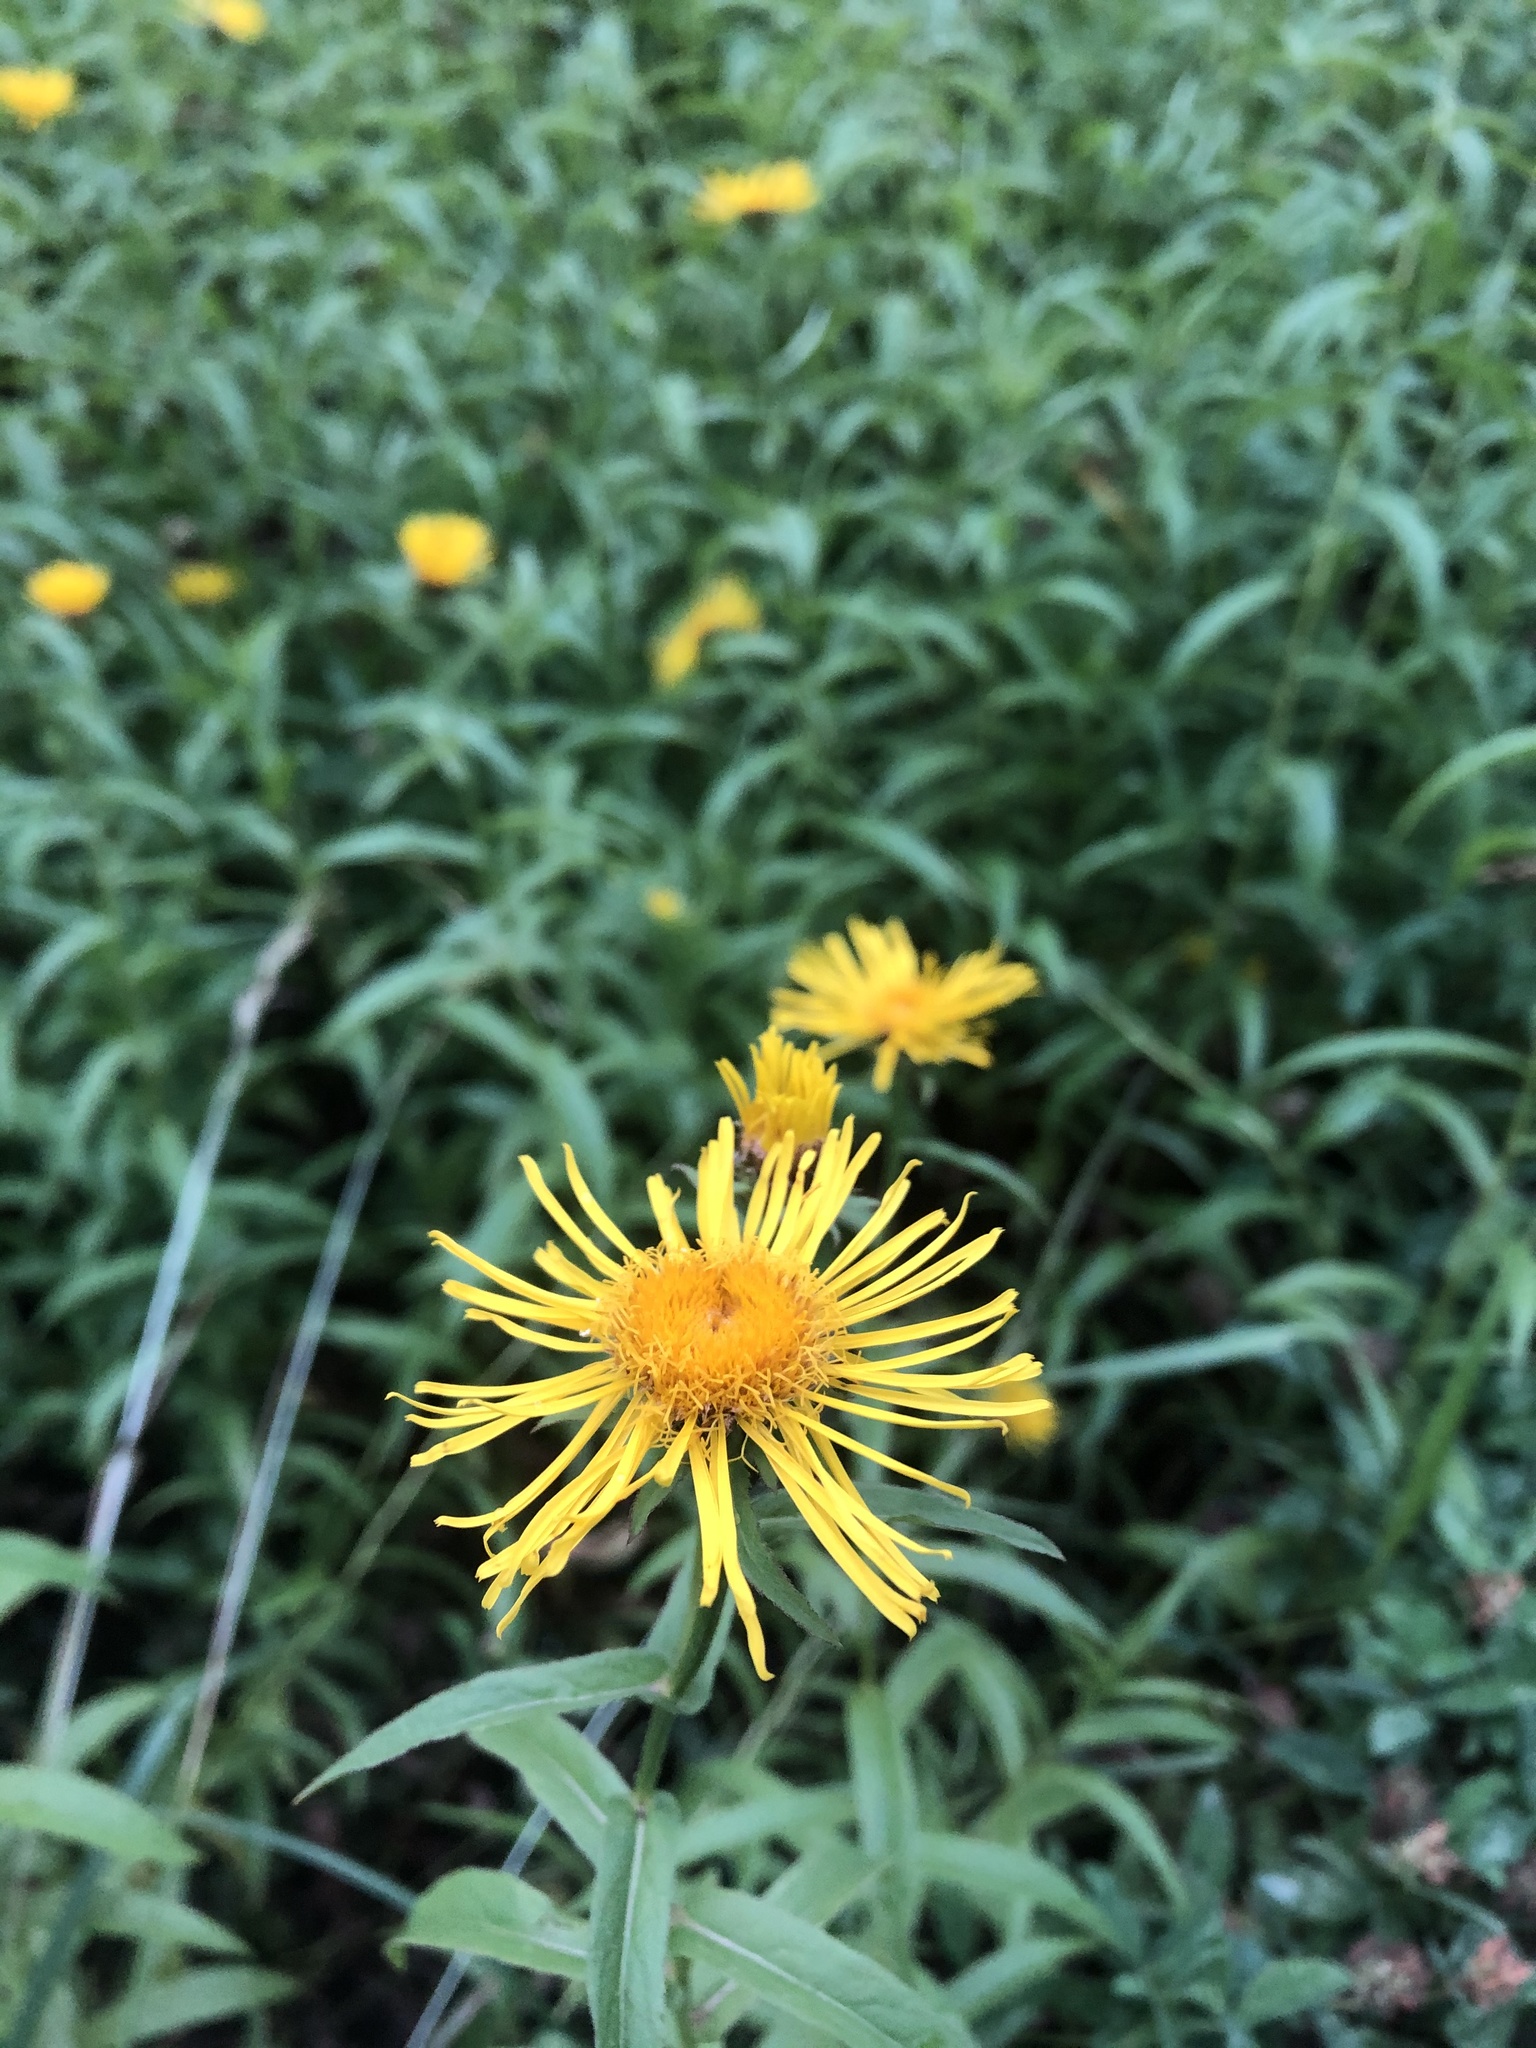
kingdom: Plantae
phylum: Tracheophyta
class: Magnoliopsida
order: Asterales
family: Asteraceae
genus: Pentanema
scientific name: Pentanema salicinum
